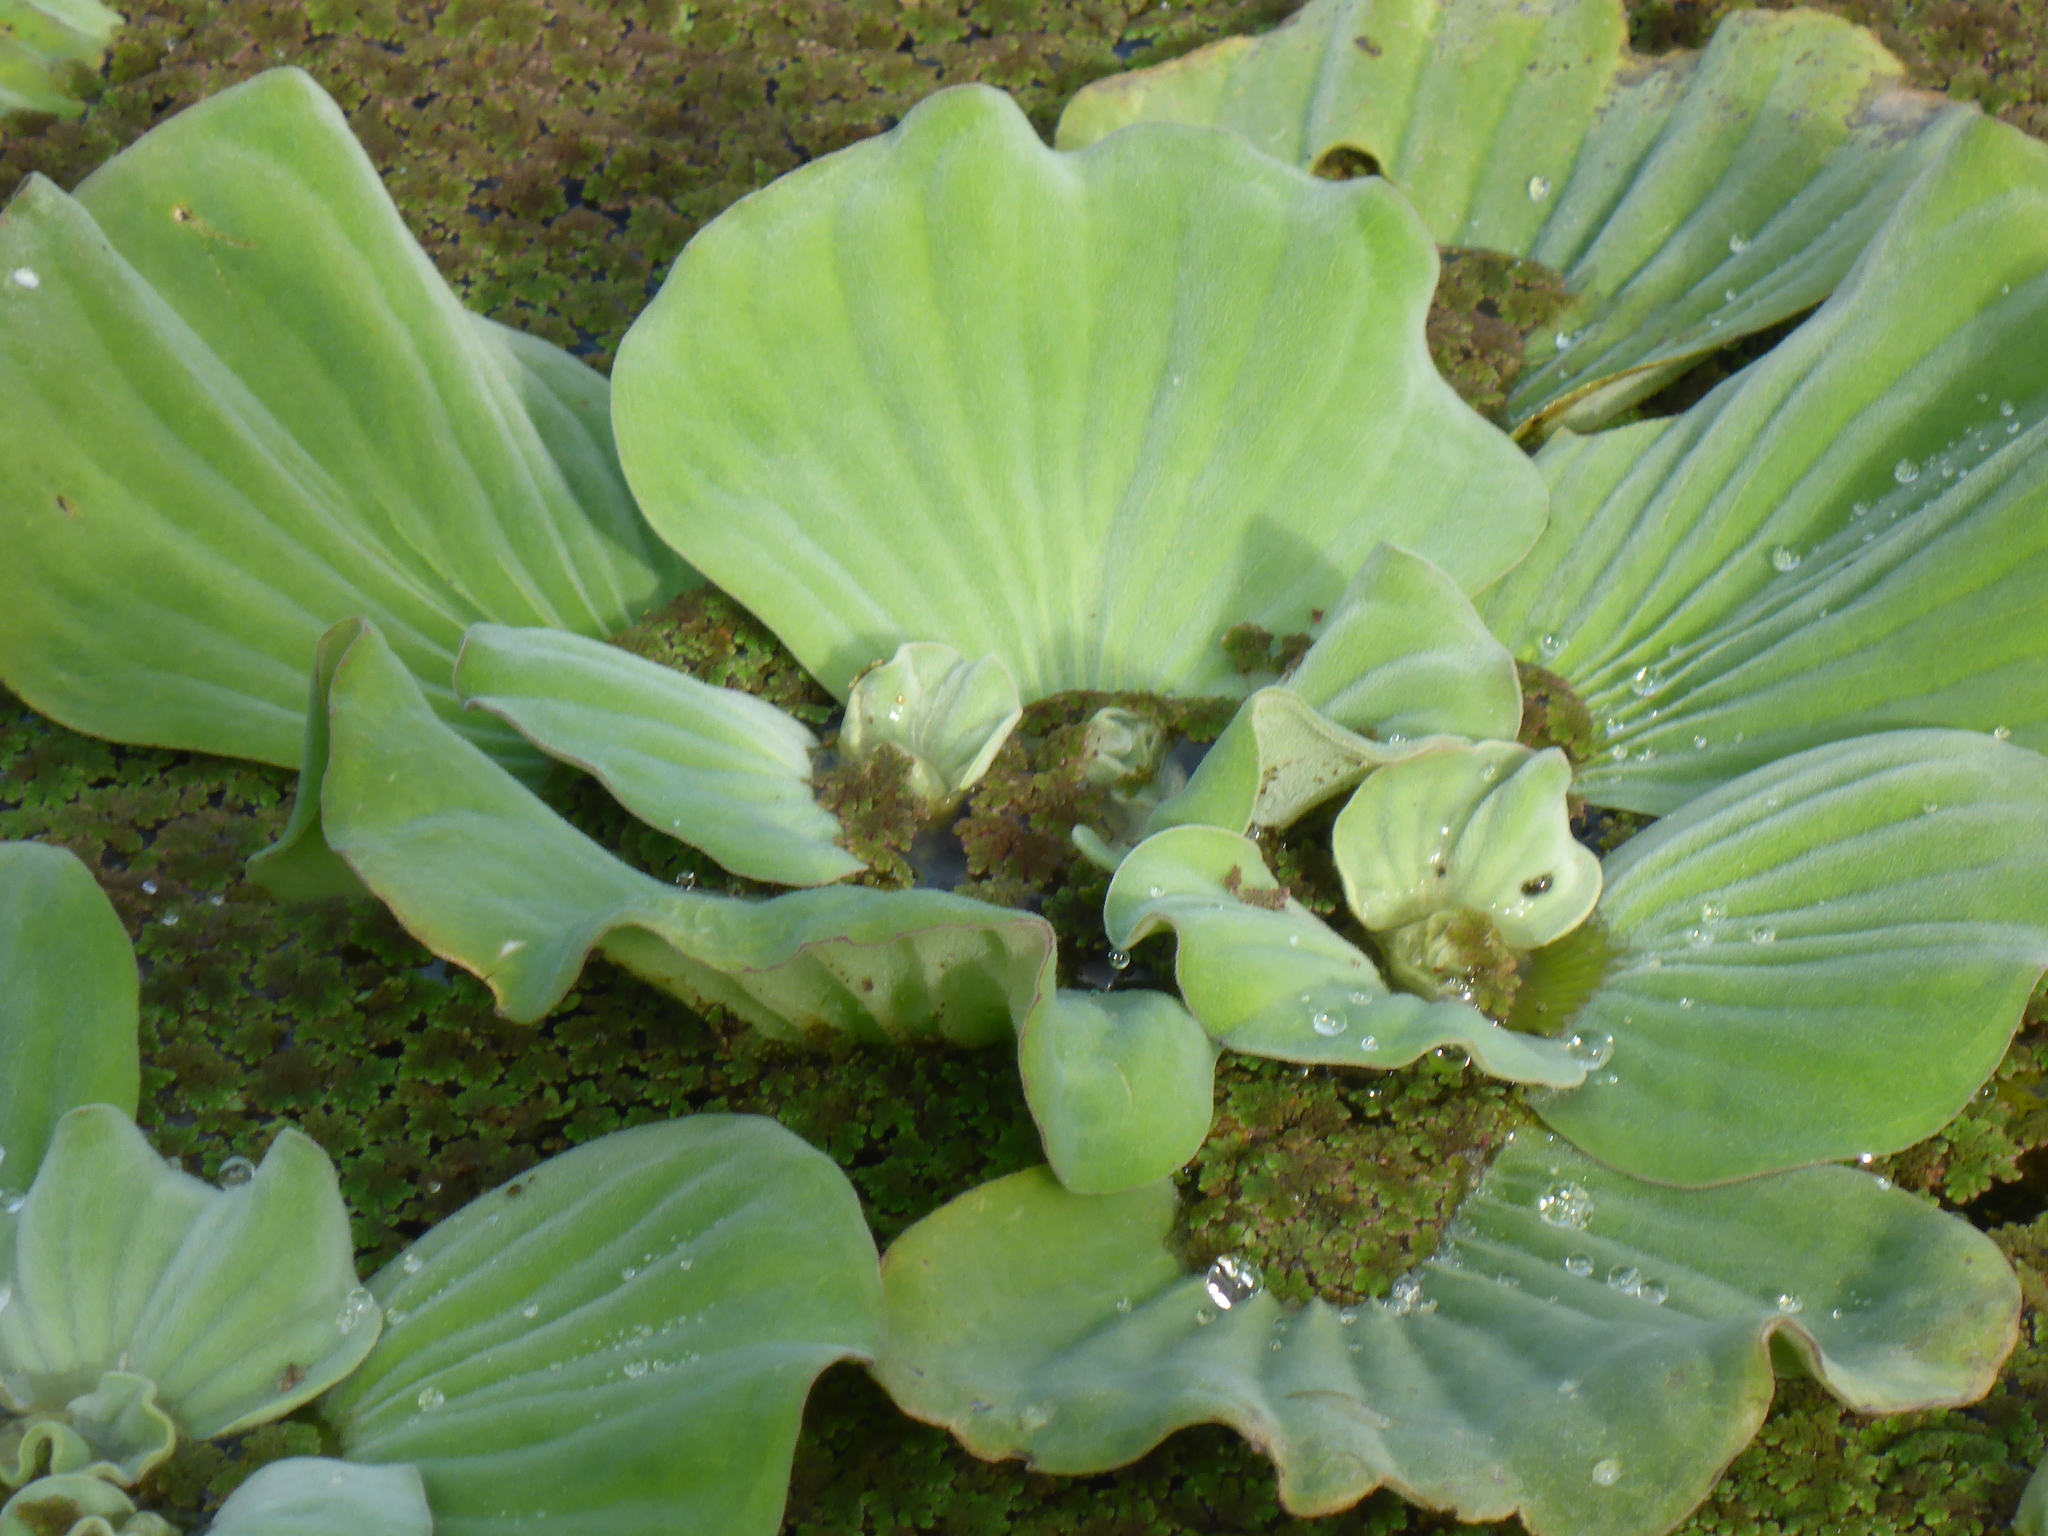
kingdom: Plantae
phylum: Tracheophyta
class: Liliopsida
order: Alismatales
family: Araceae
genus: Pistia
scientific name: Pistia stratiotes
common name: Water lettuce
